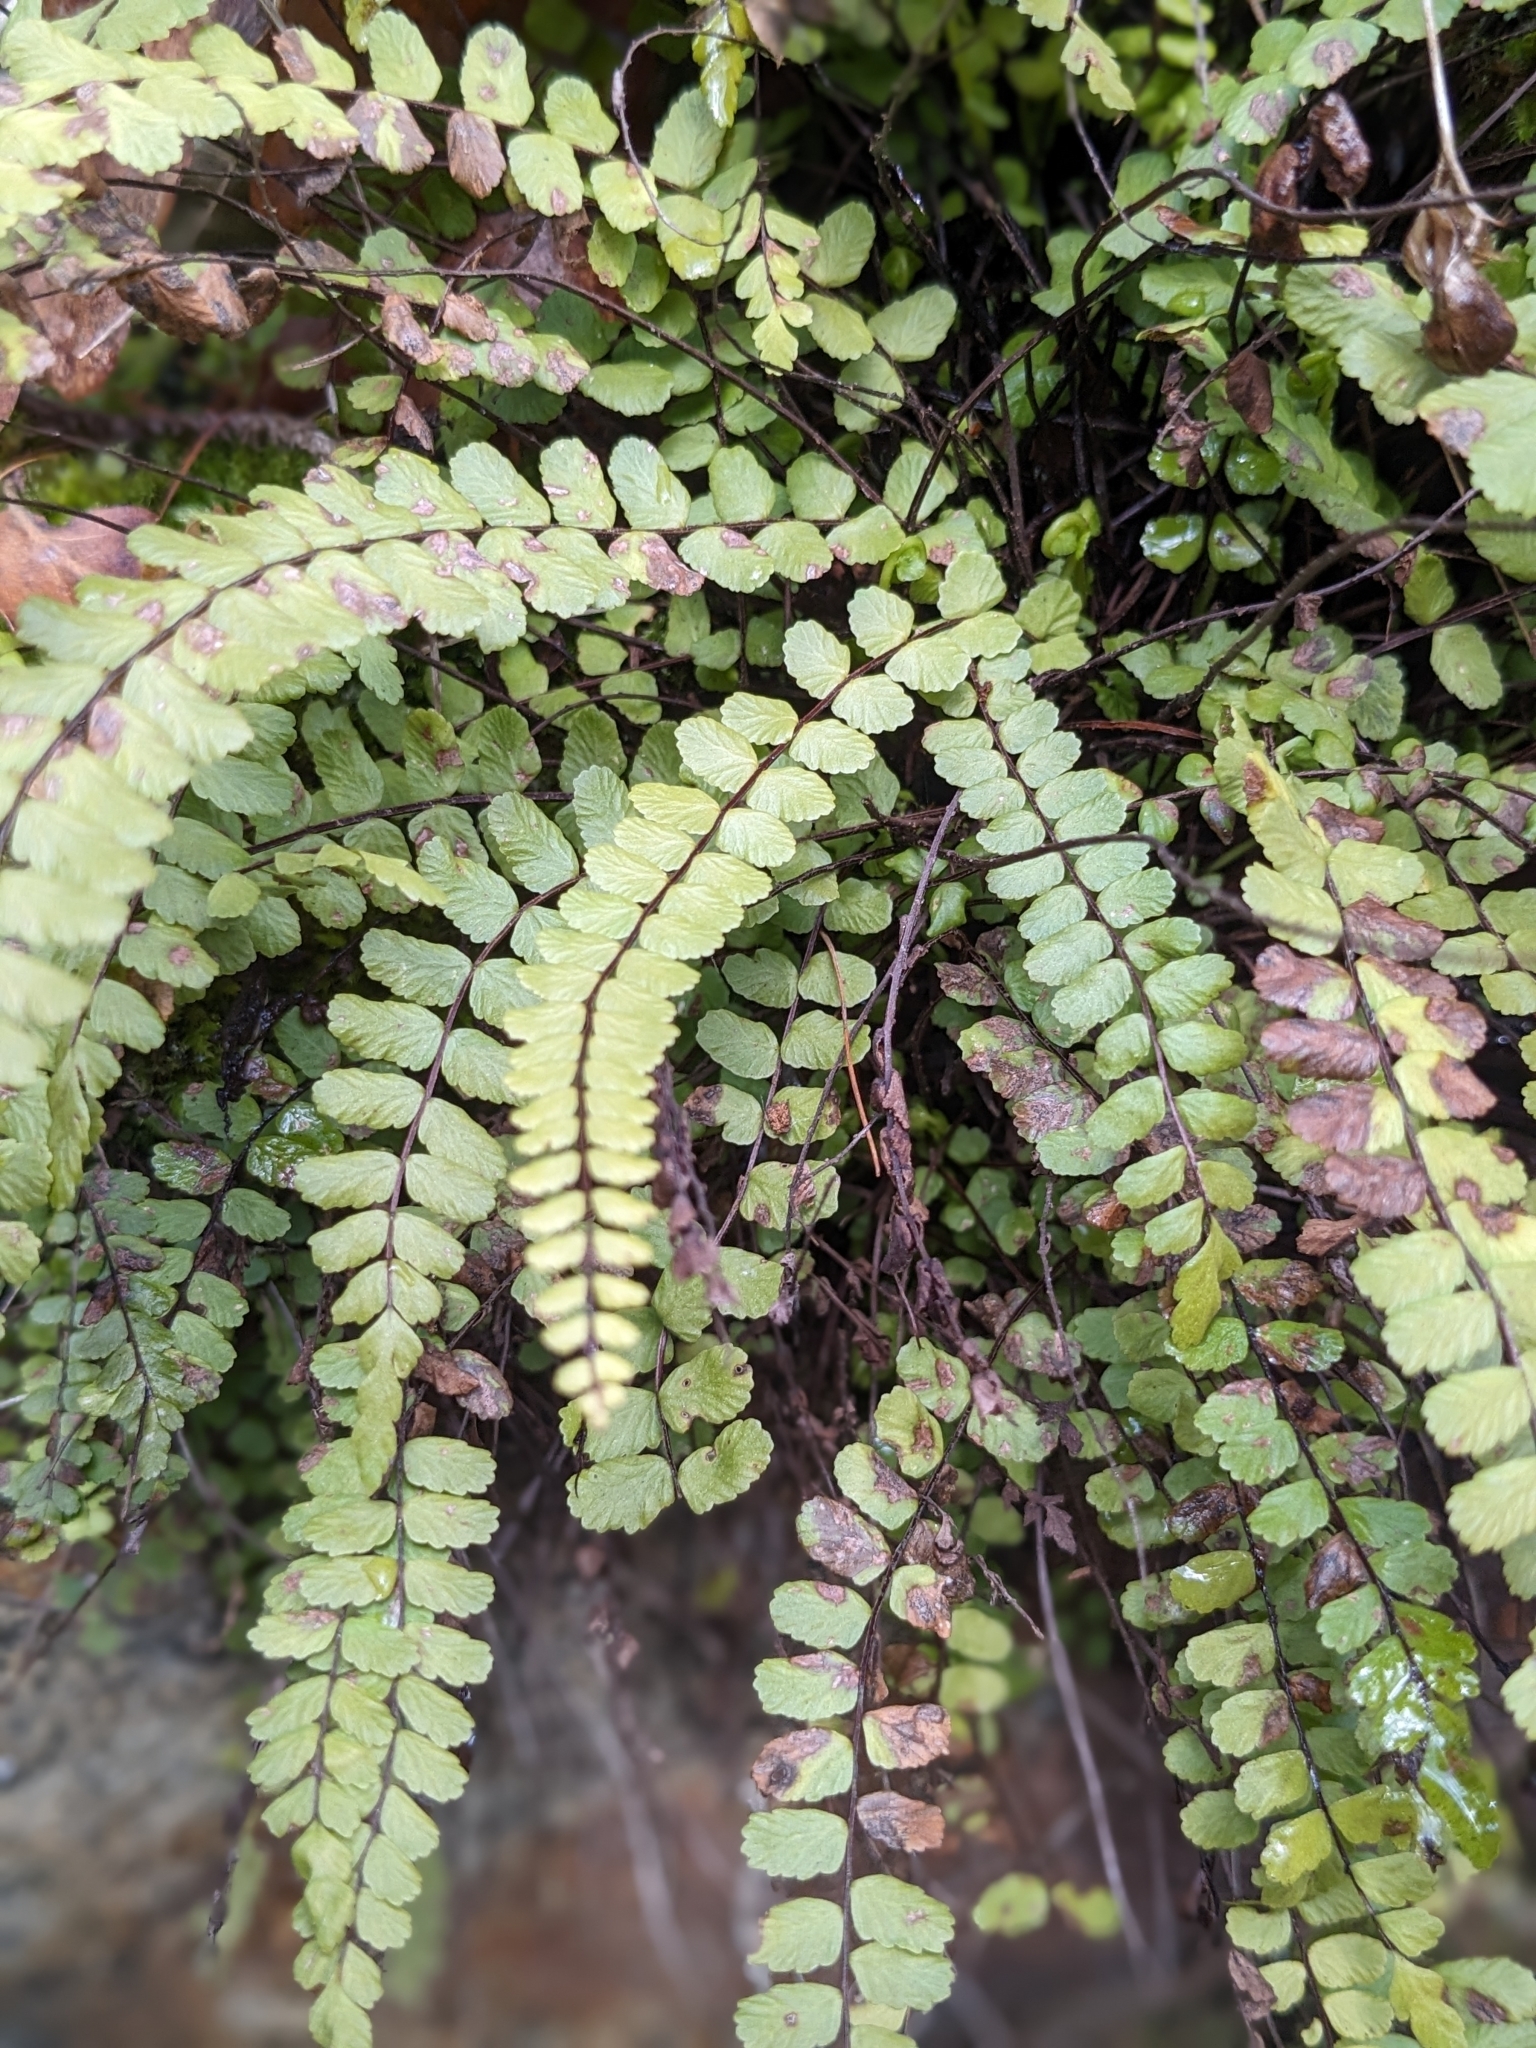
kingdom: Plantae
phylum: Tracheophyta
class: Polypodiopsida
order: Polypodiales
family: Aspleniaceae
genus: Asplenium
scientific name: Asplenium trichomanes
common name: Maidenhair spleenwort
